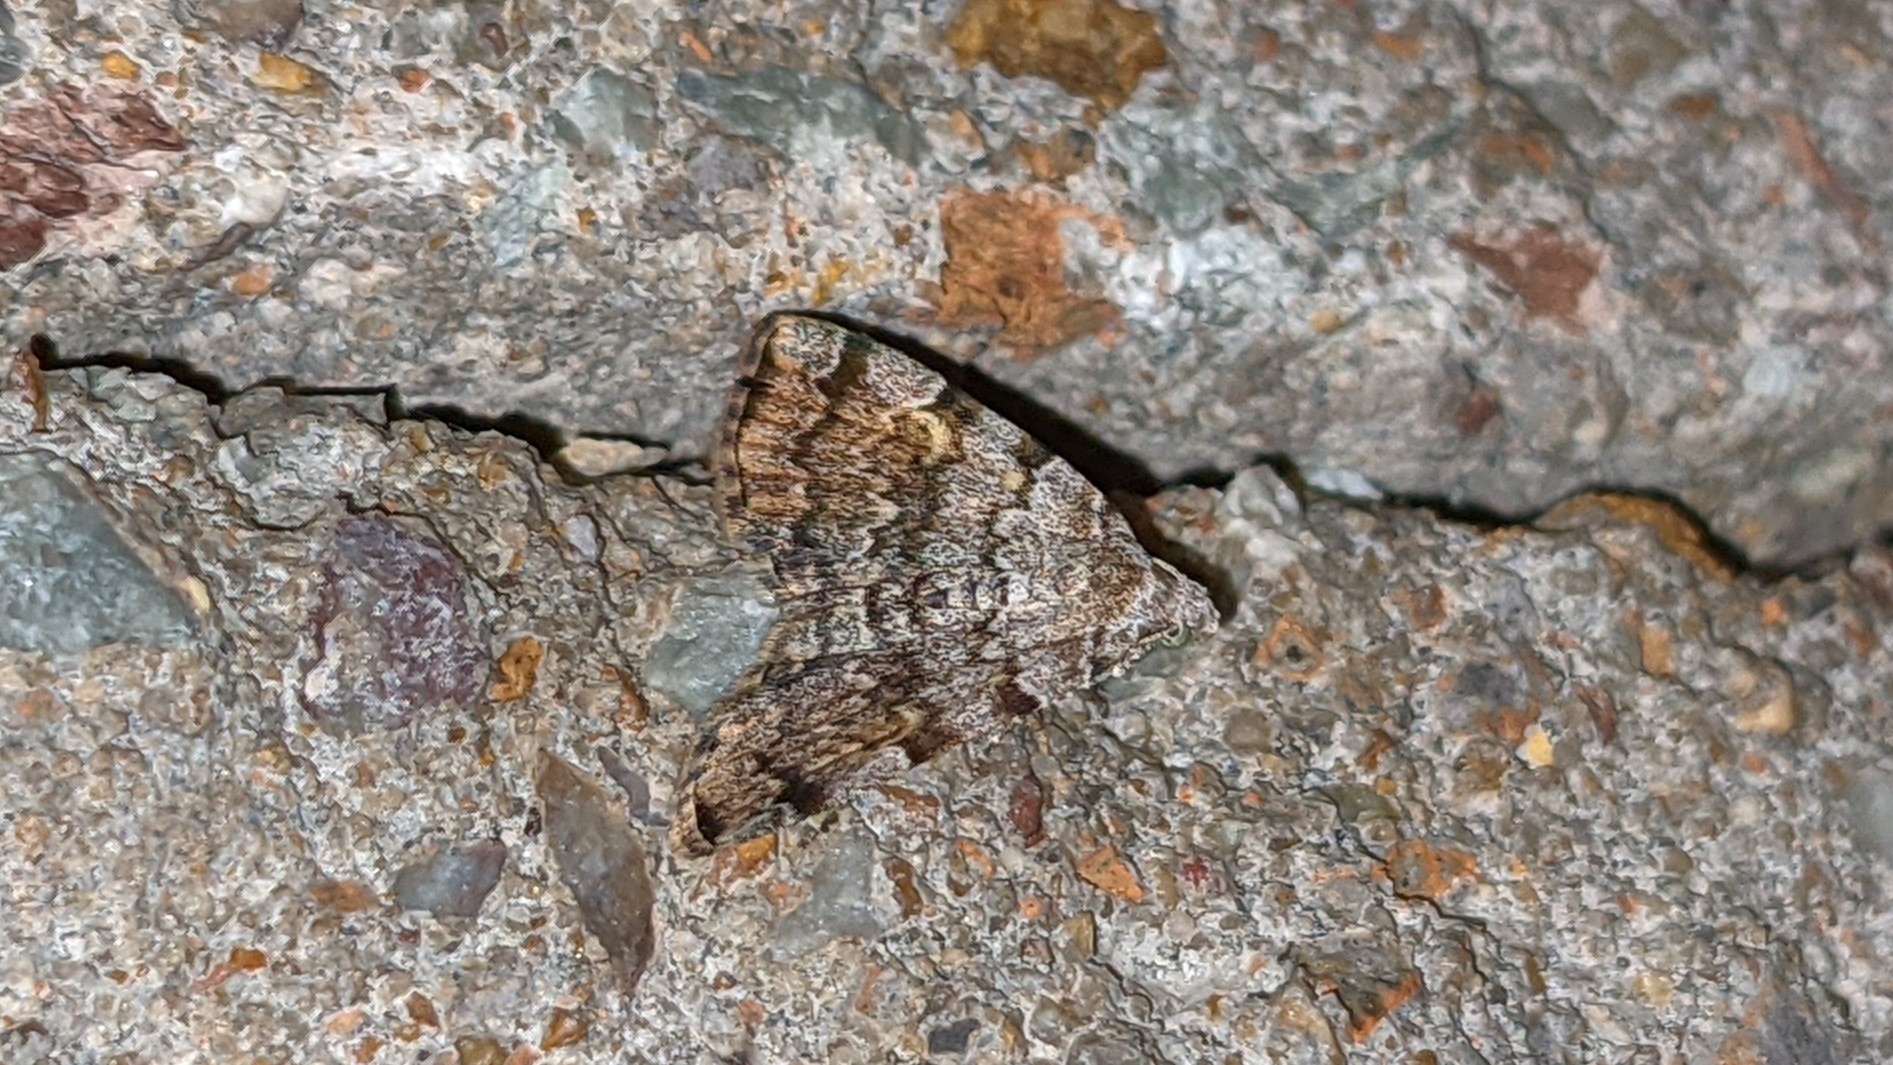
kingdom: Animalia
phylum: Arthropoda
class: Insecta
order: Lepidoptera
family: Erebidae
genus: Idia
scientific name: Idia americalis
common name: American idia moth
